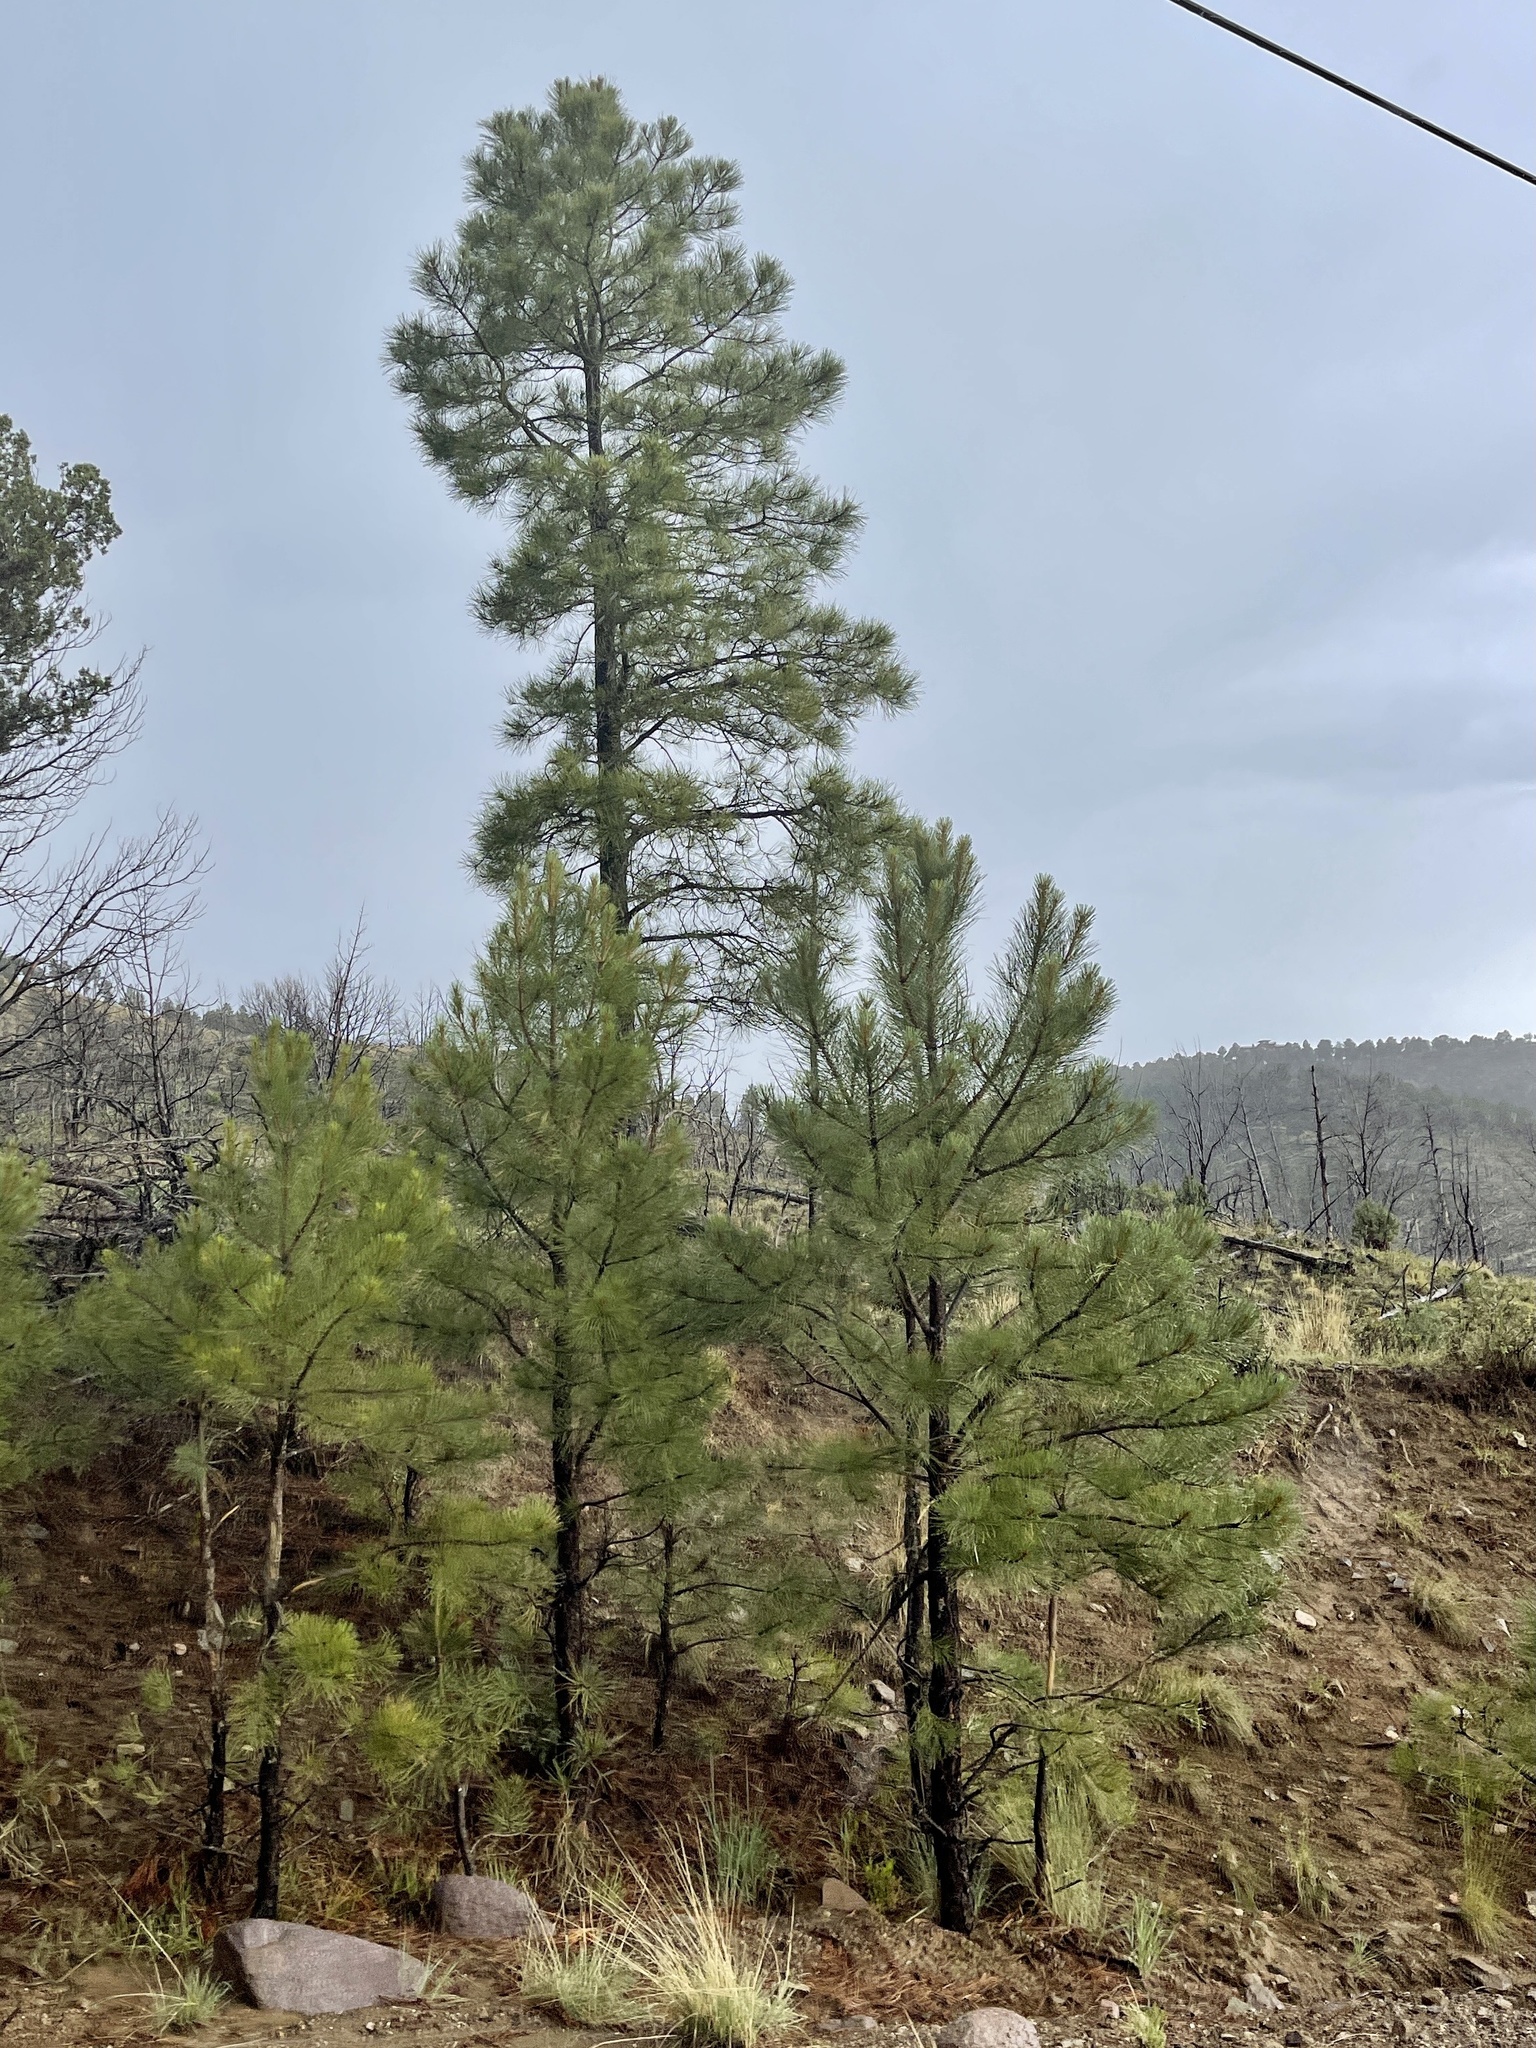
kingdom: Plantae
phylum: Tracheophyta
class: Pinopsida
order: Pinales
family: Pinaceae
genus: Pinus
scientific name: Pinus ponderosa
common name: Western yellow-pine
